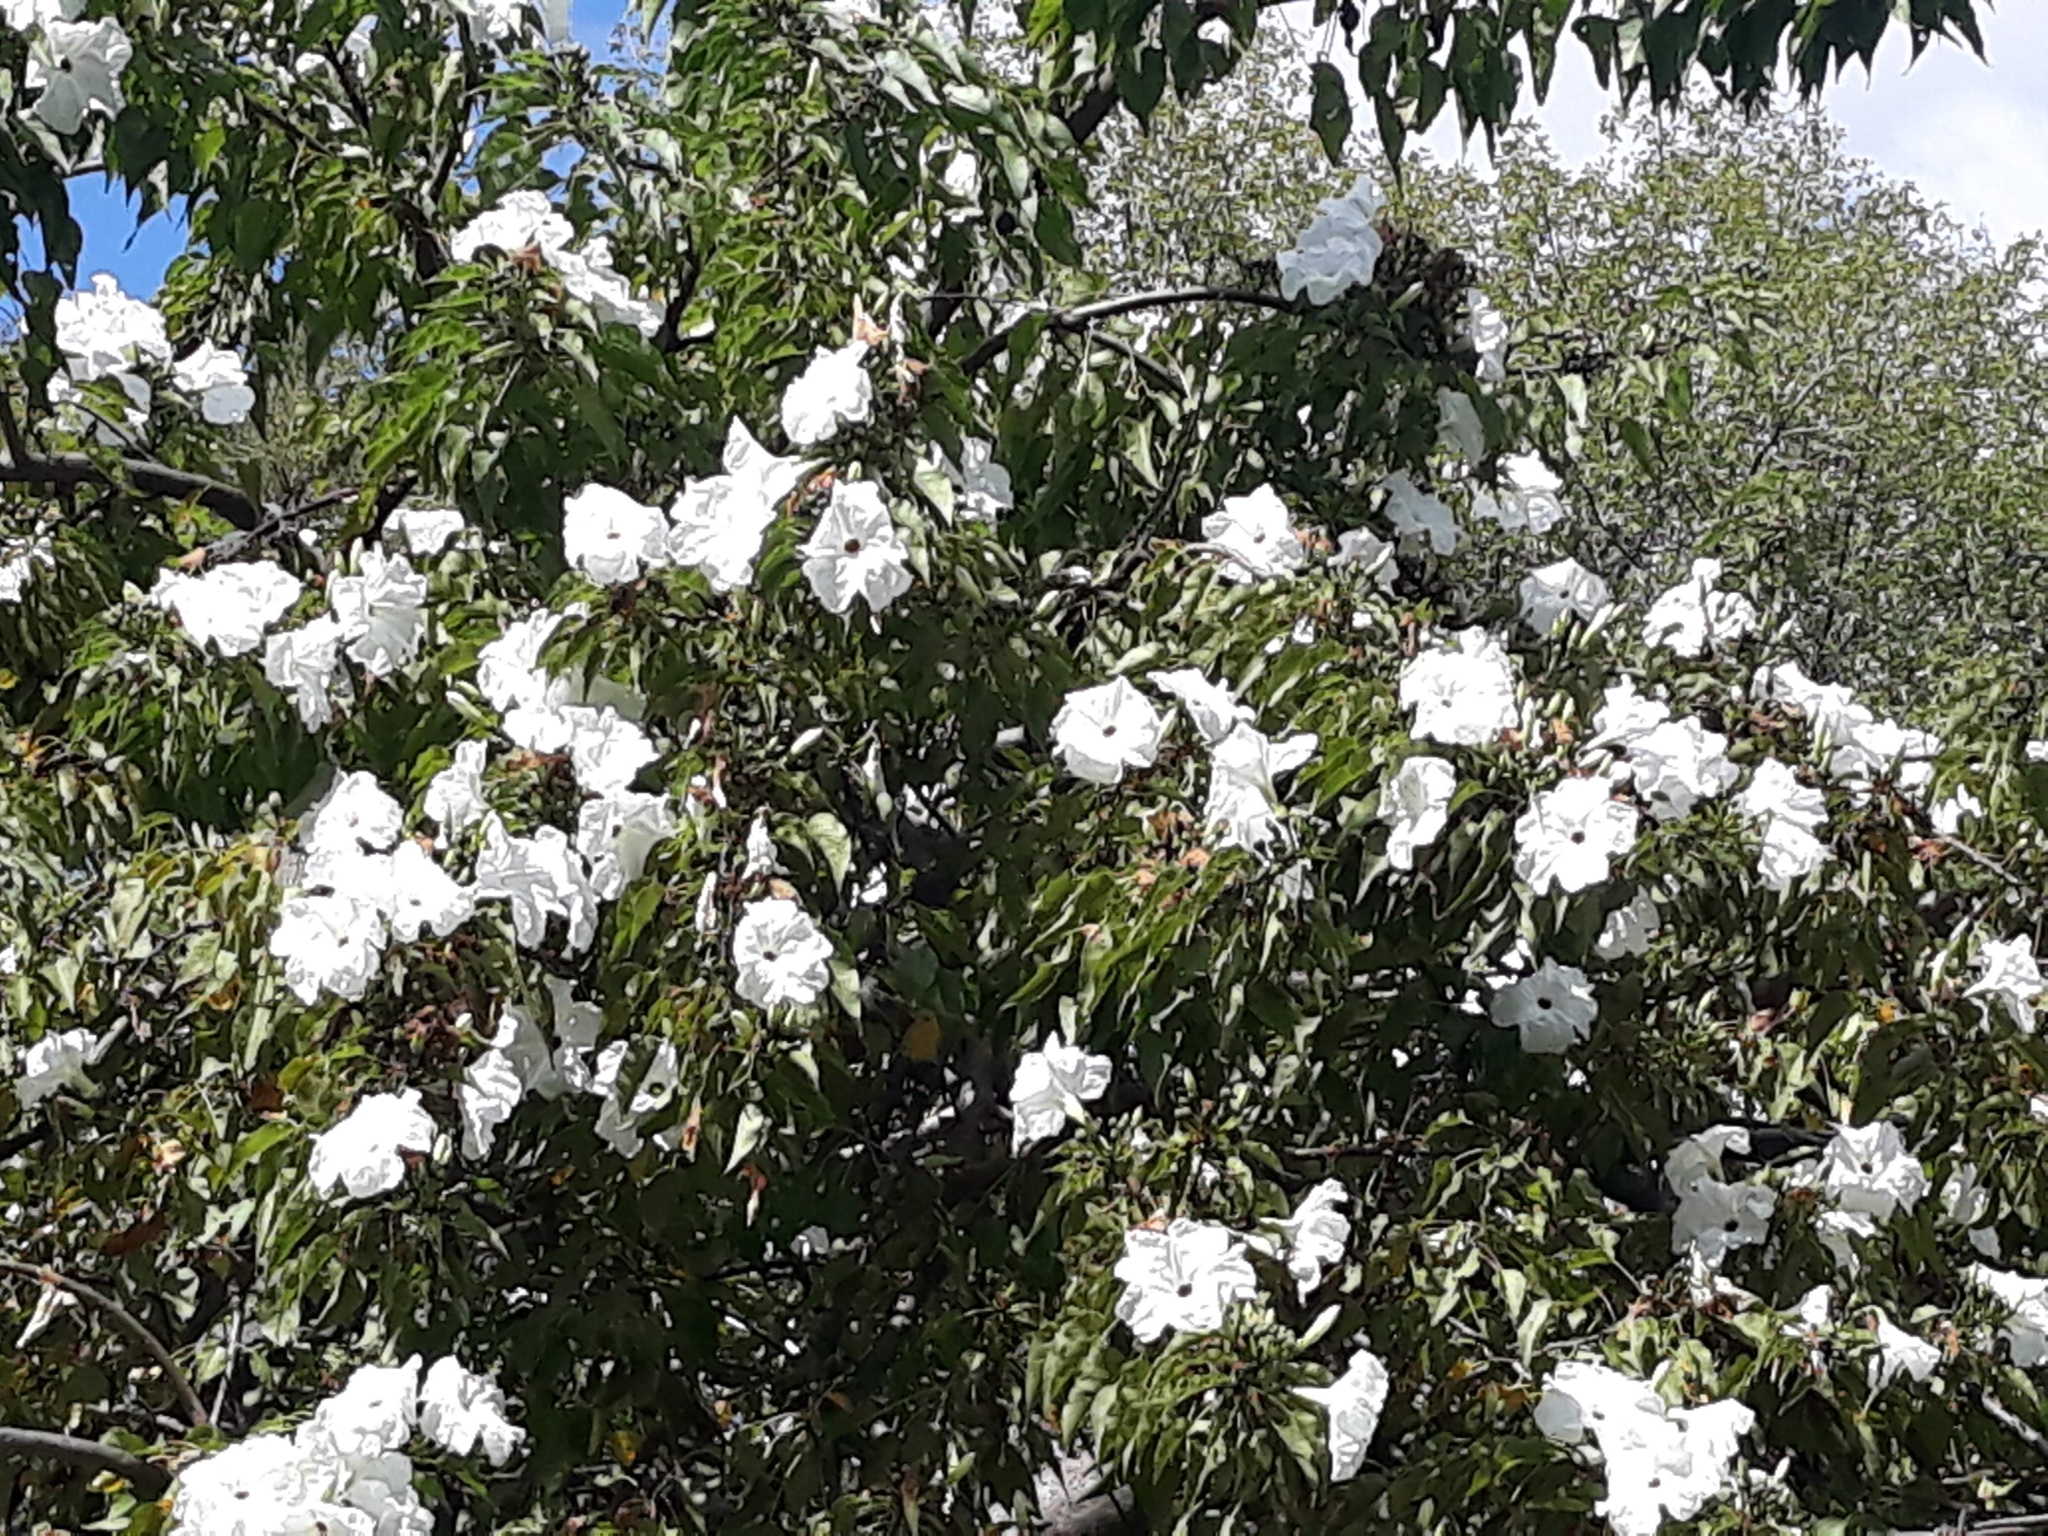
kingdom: Plantae
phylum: Tracheophyta
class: Magnoliopsida
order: Solanales
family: Convolvulaceae
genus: Ipomoea
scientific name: Ipomoea pauciflora
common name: Tree morningglory
